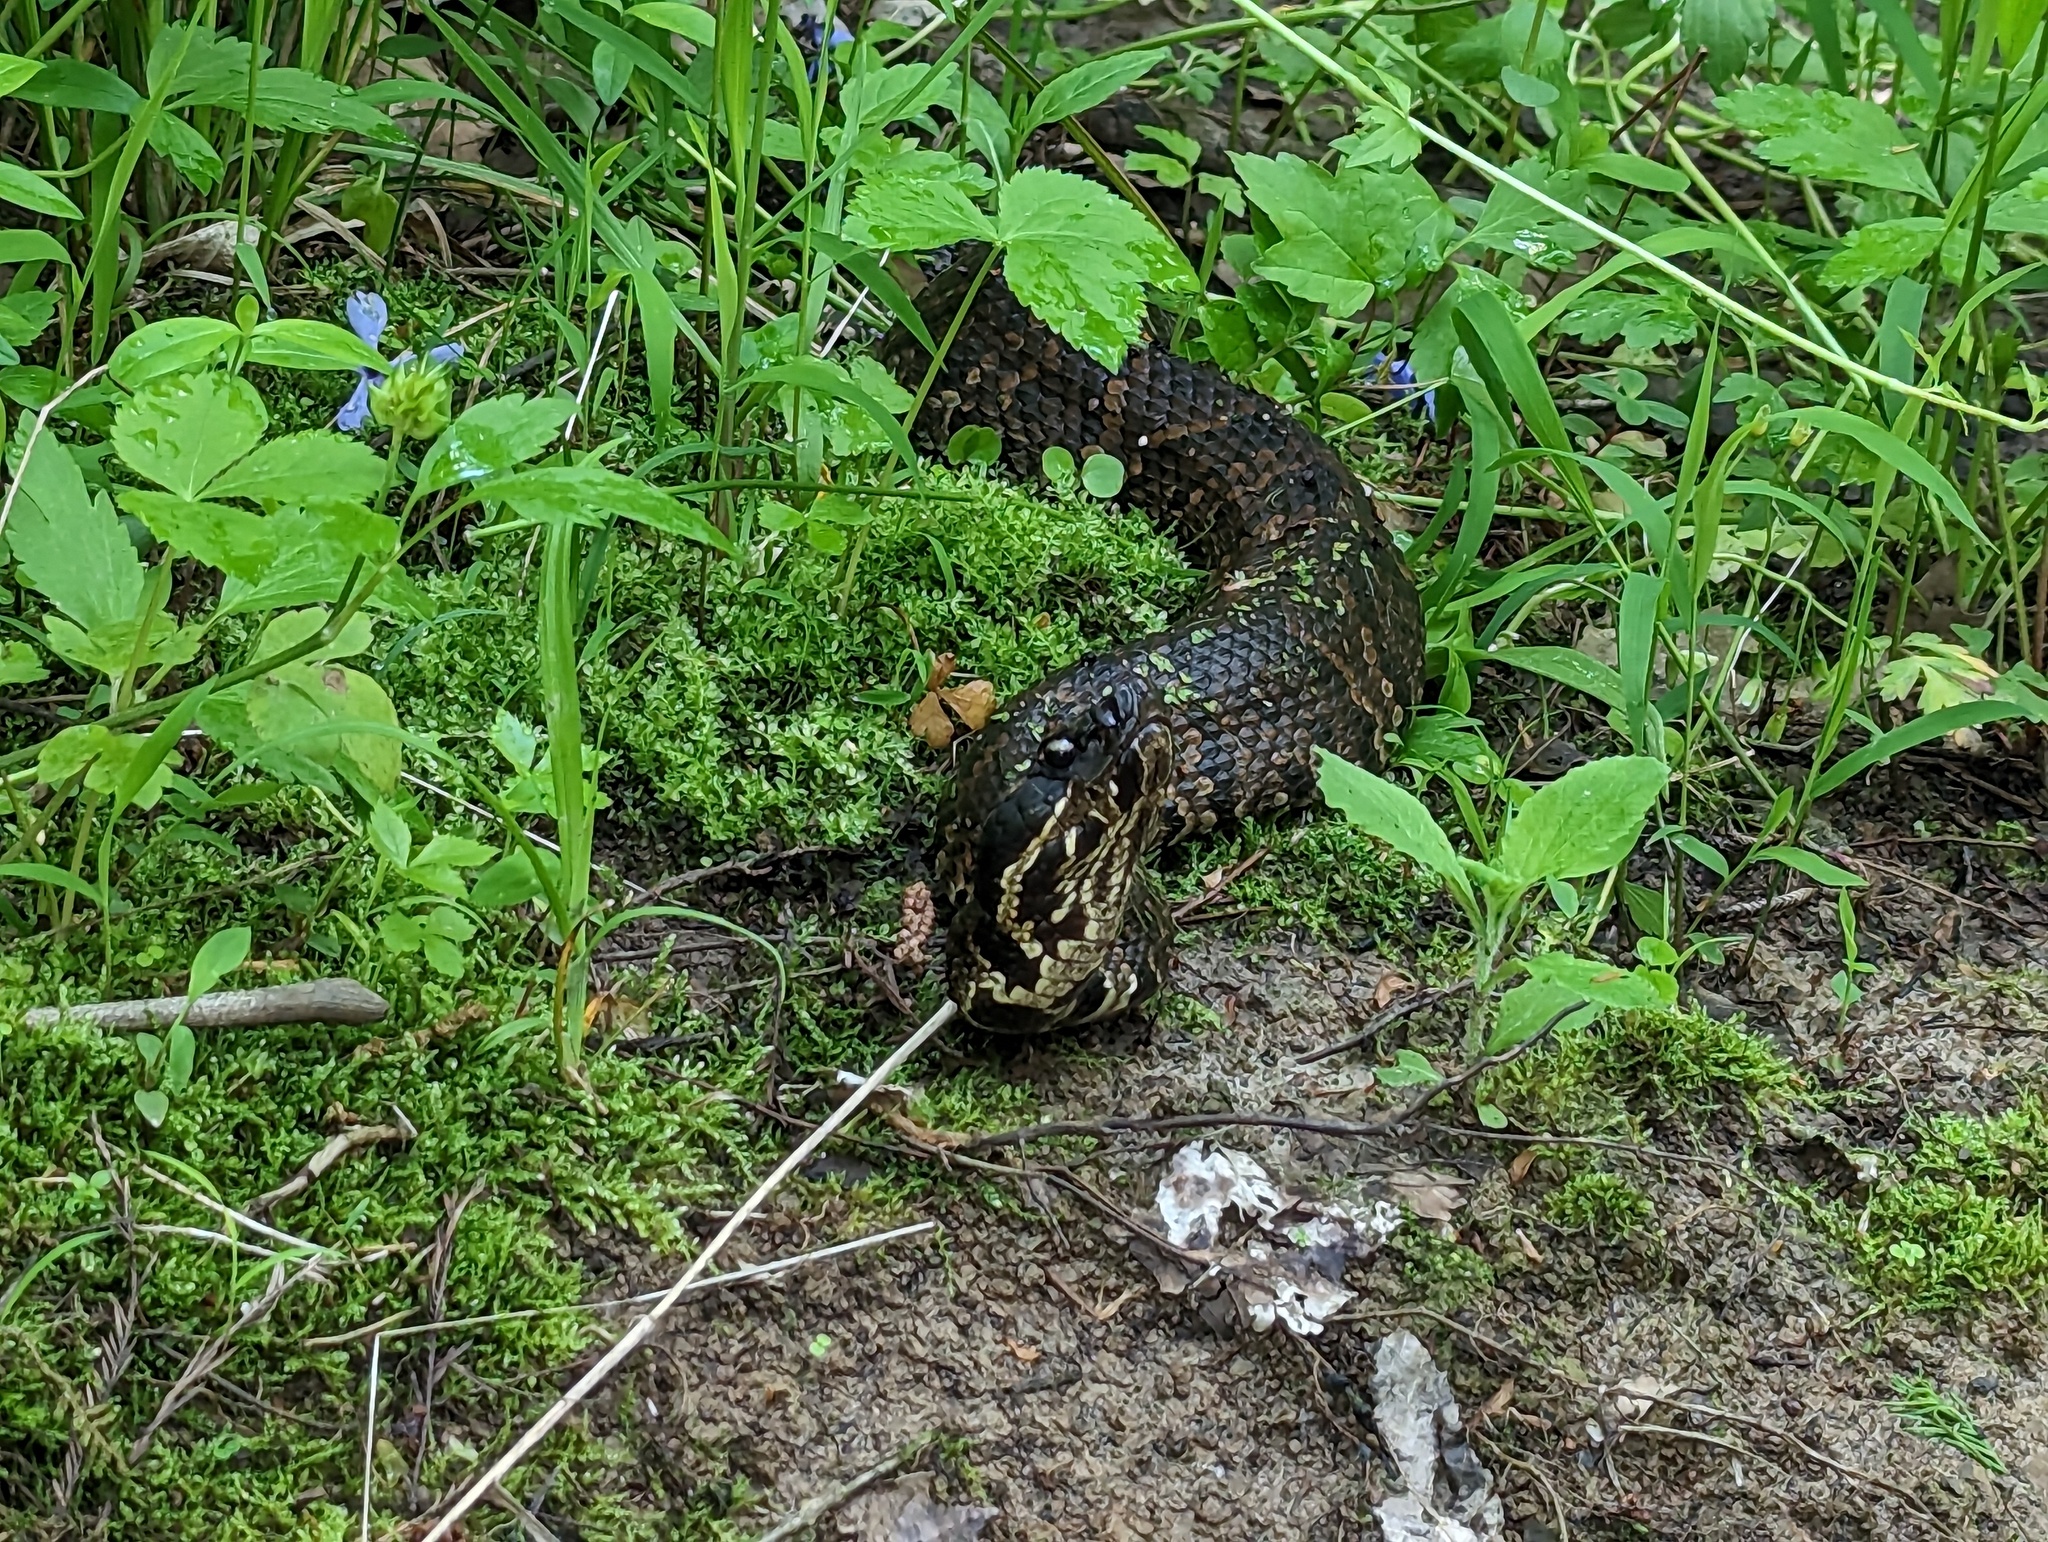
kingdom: Animalia
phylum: Chordata
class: Squamata
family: Viperidae
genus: Agkistrodon
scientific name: Agkistrodon piscivorus
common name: Cottonmouth
